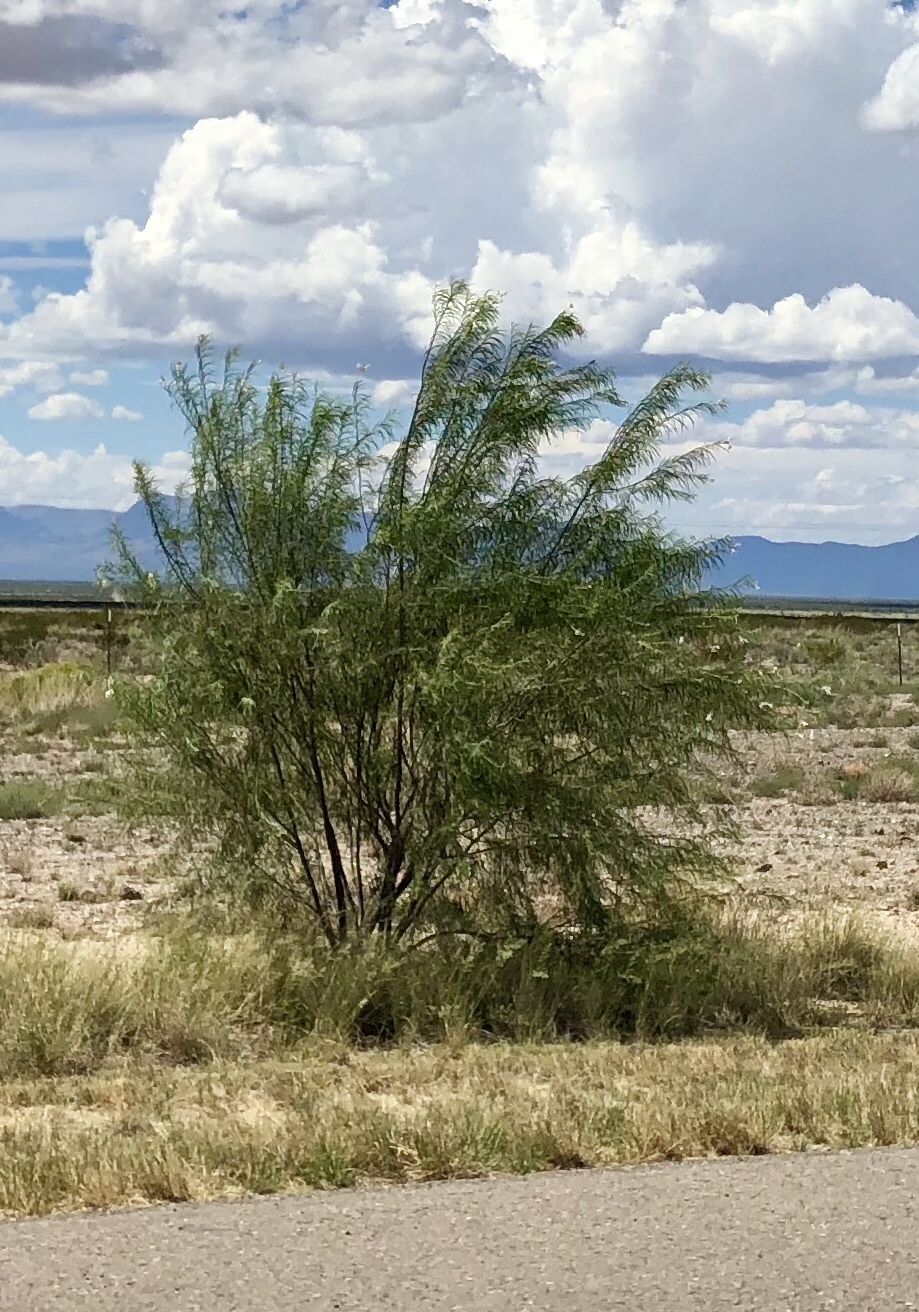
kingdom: Plantae
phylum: Tracheophyta
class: Magnoliopsida
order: Lamiales
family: Bignoniaceae
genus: Chilopsis
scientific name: Chilopsis linearis
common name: Desert-willow
